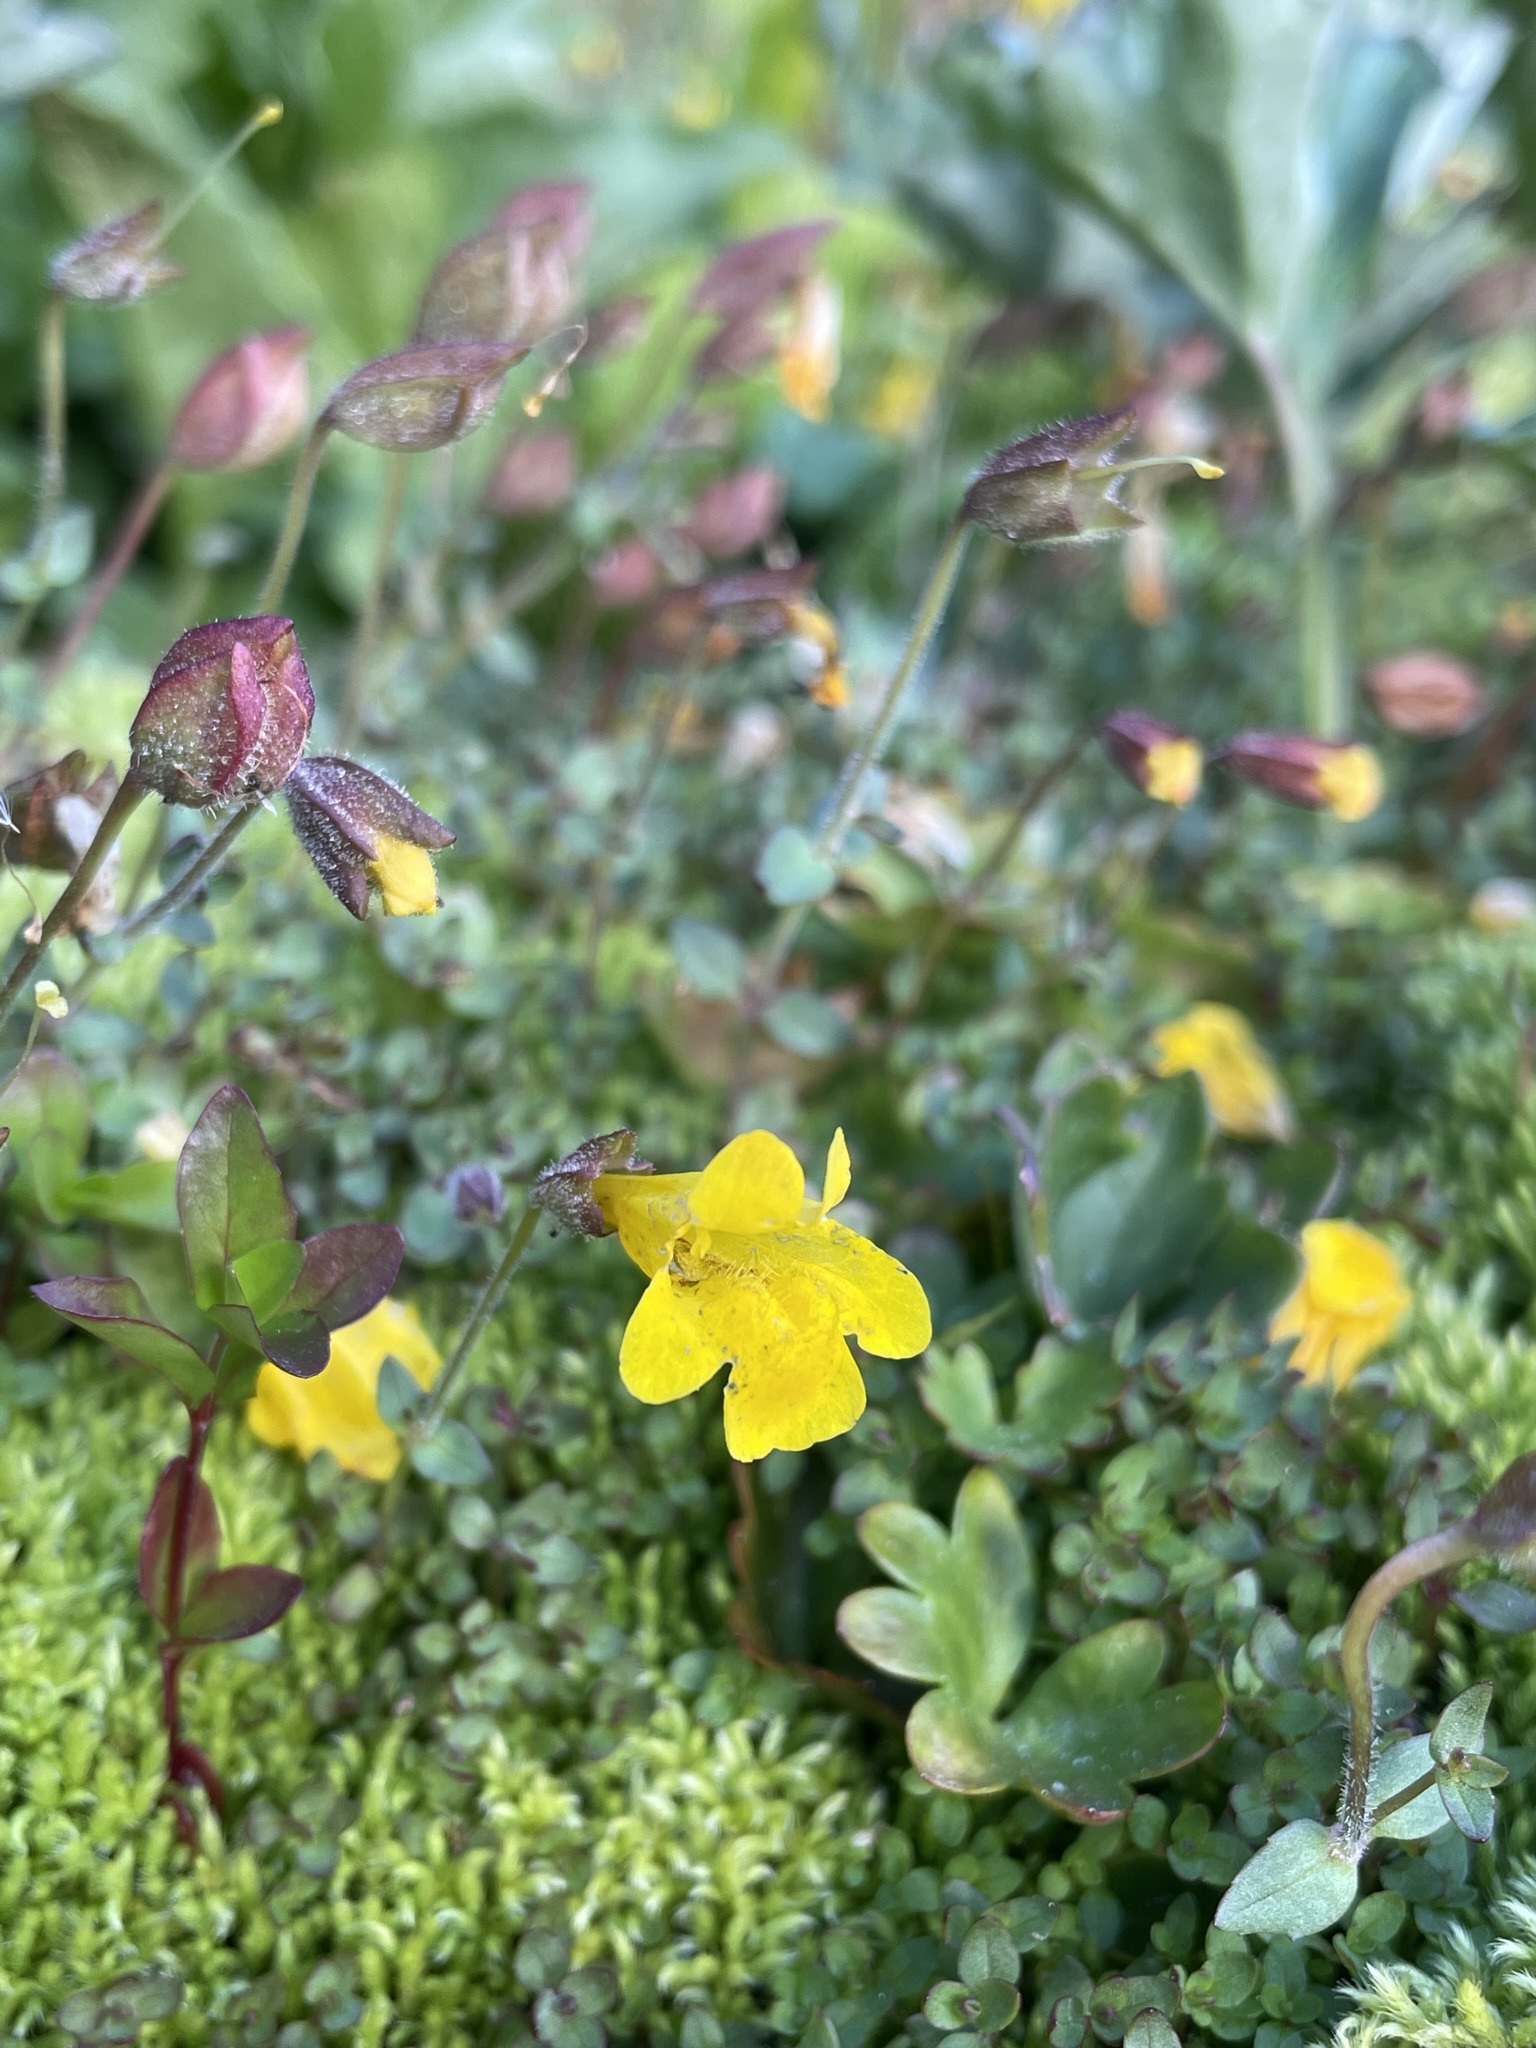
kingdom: Plantae
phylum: Tracheophyta
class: Magnoliopsida
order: Lamiales
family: Phrymaceae
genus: Erythranthe
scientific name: Erythranthe caespitosa
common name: Subalpine monkeyflower
